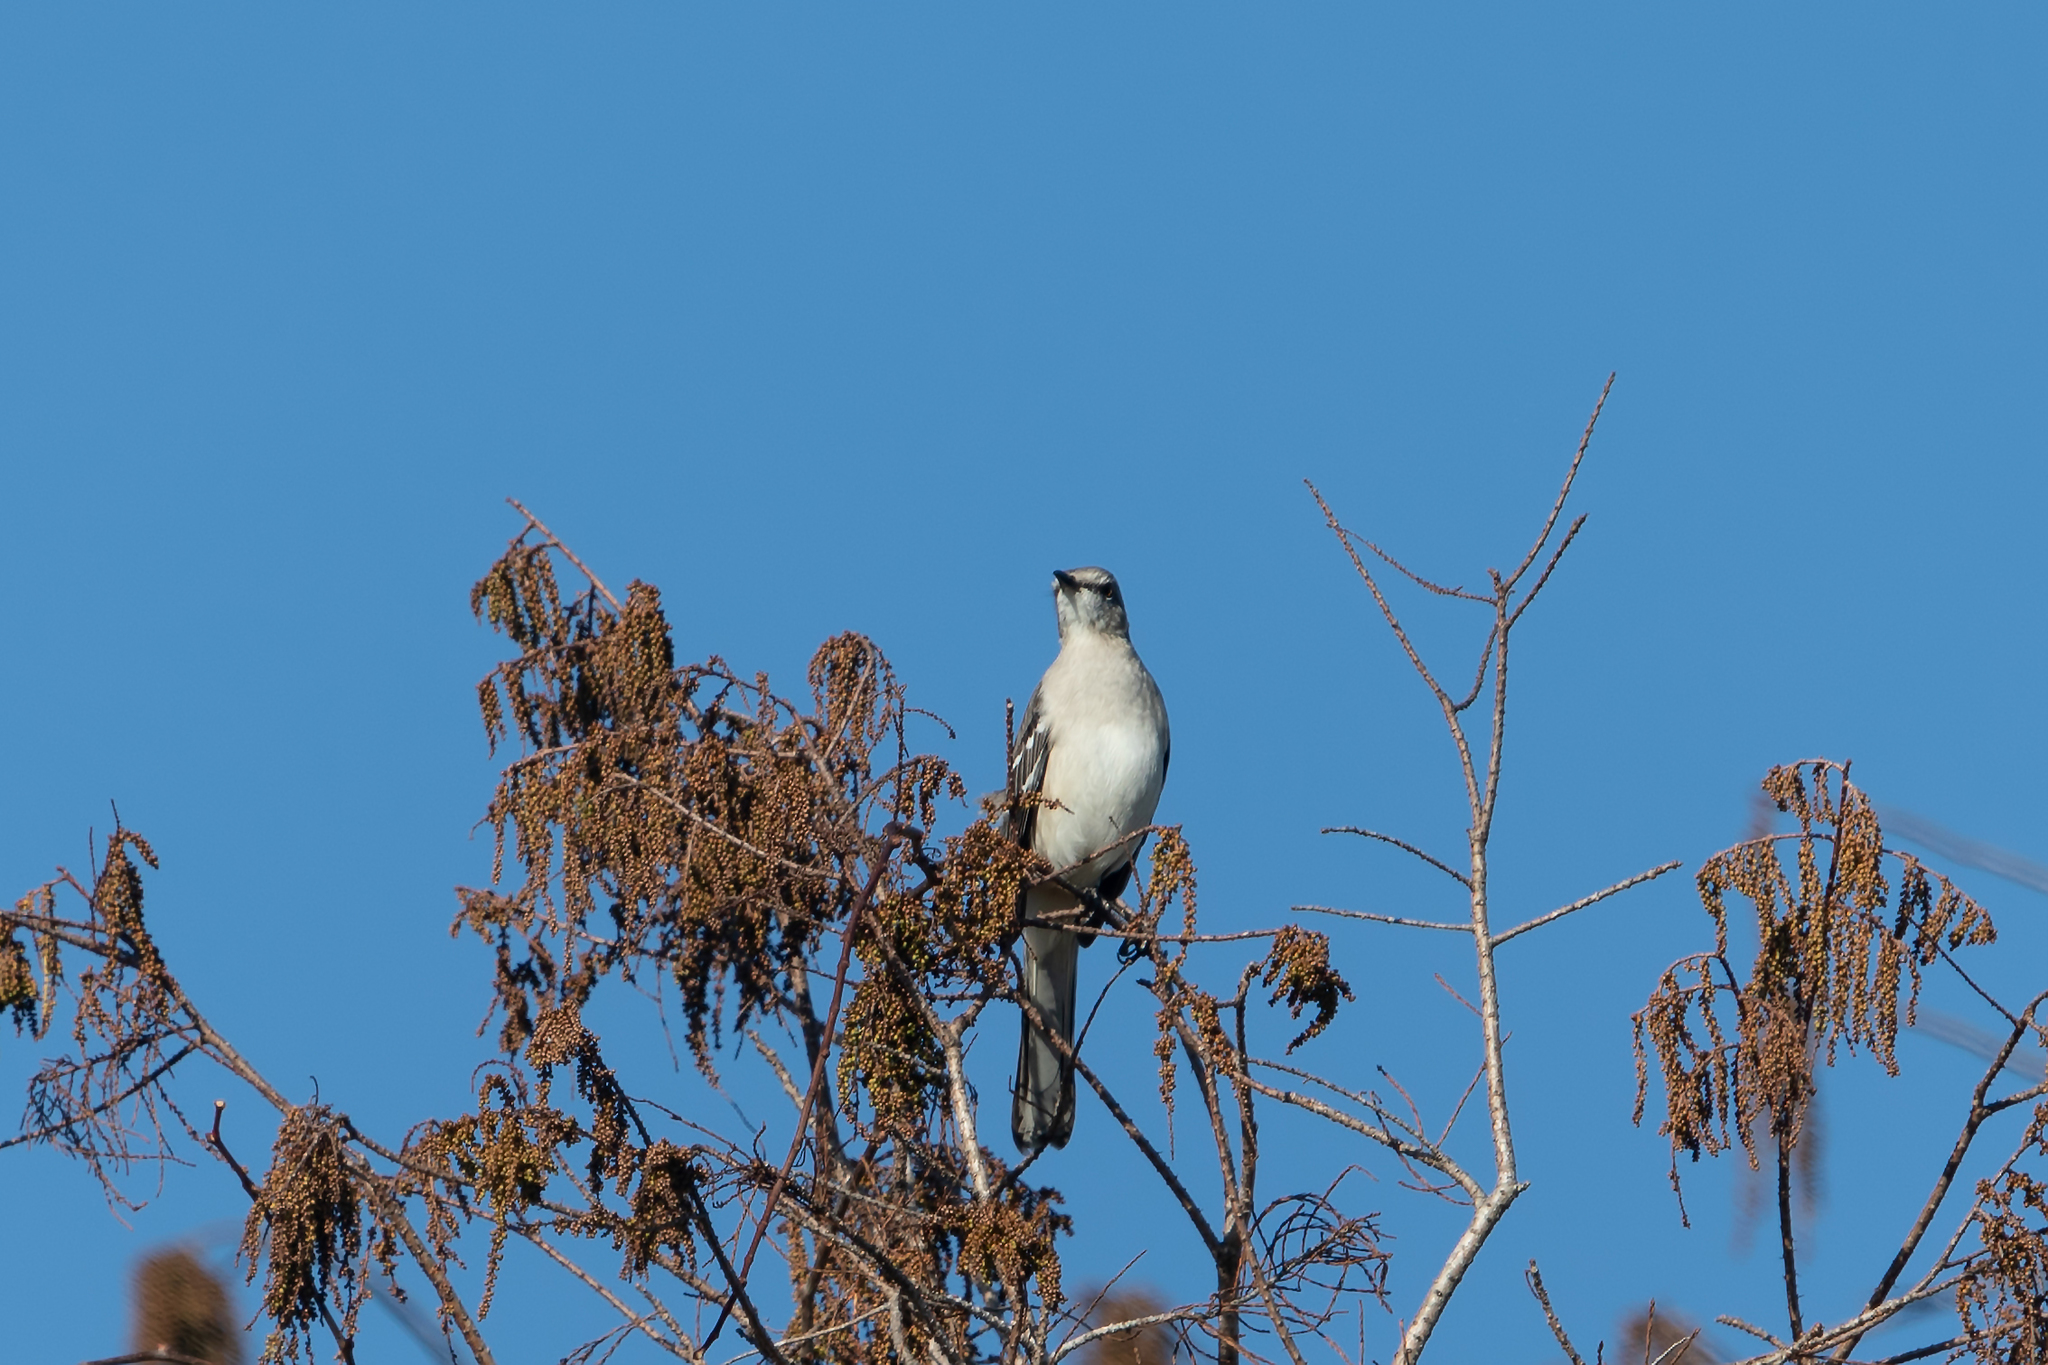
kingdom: Animalia
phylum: Chordata
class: Aves
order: Passeriformes
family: Mimidae
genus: Mimus
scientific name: Mimus polyglottos
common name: Northern mockingbird
